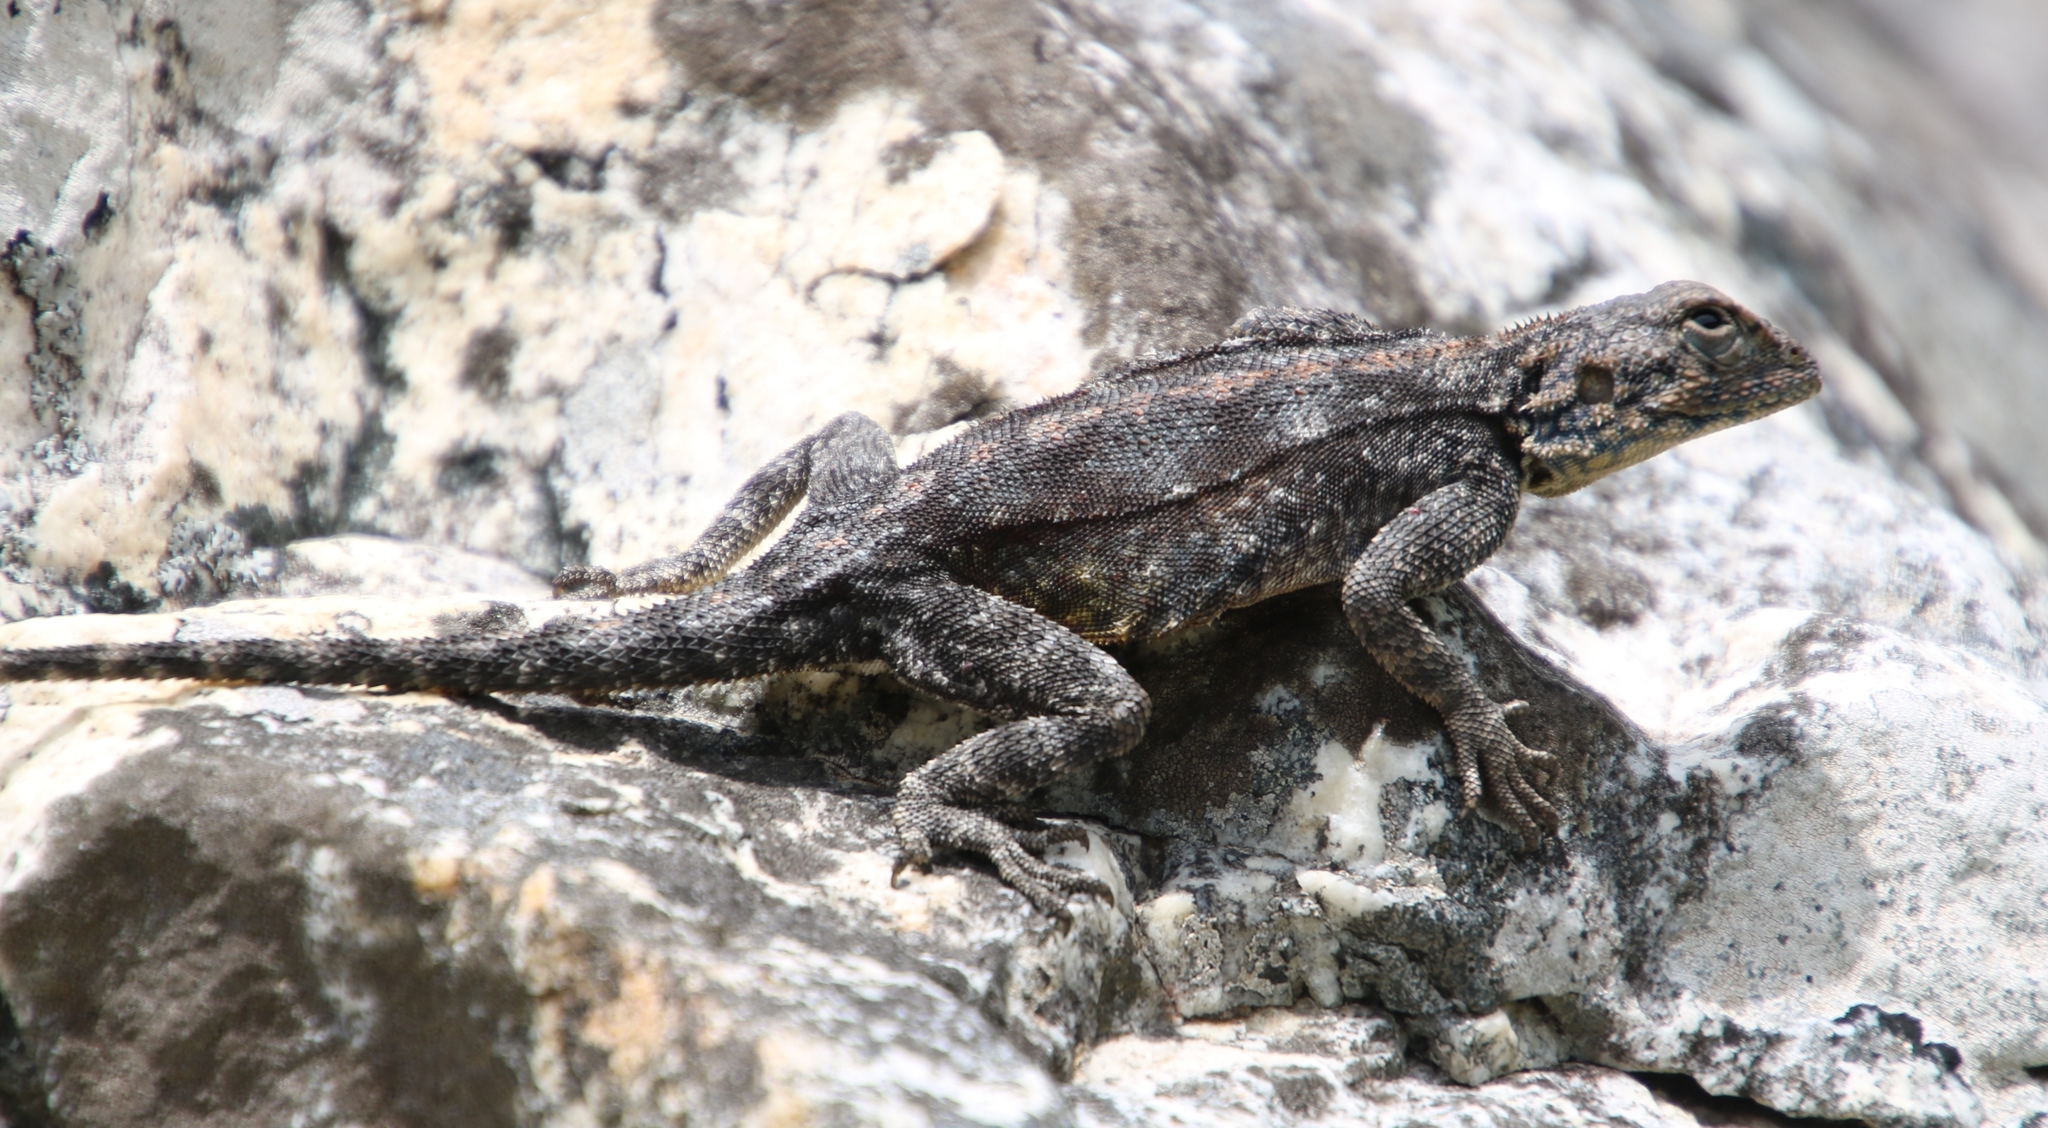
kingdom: Animalia
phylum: Chordata
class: Squamata
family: Agamidae
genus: Agama
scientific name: Agama atra
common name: Southern african rock agama
